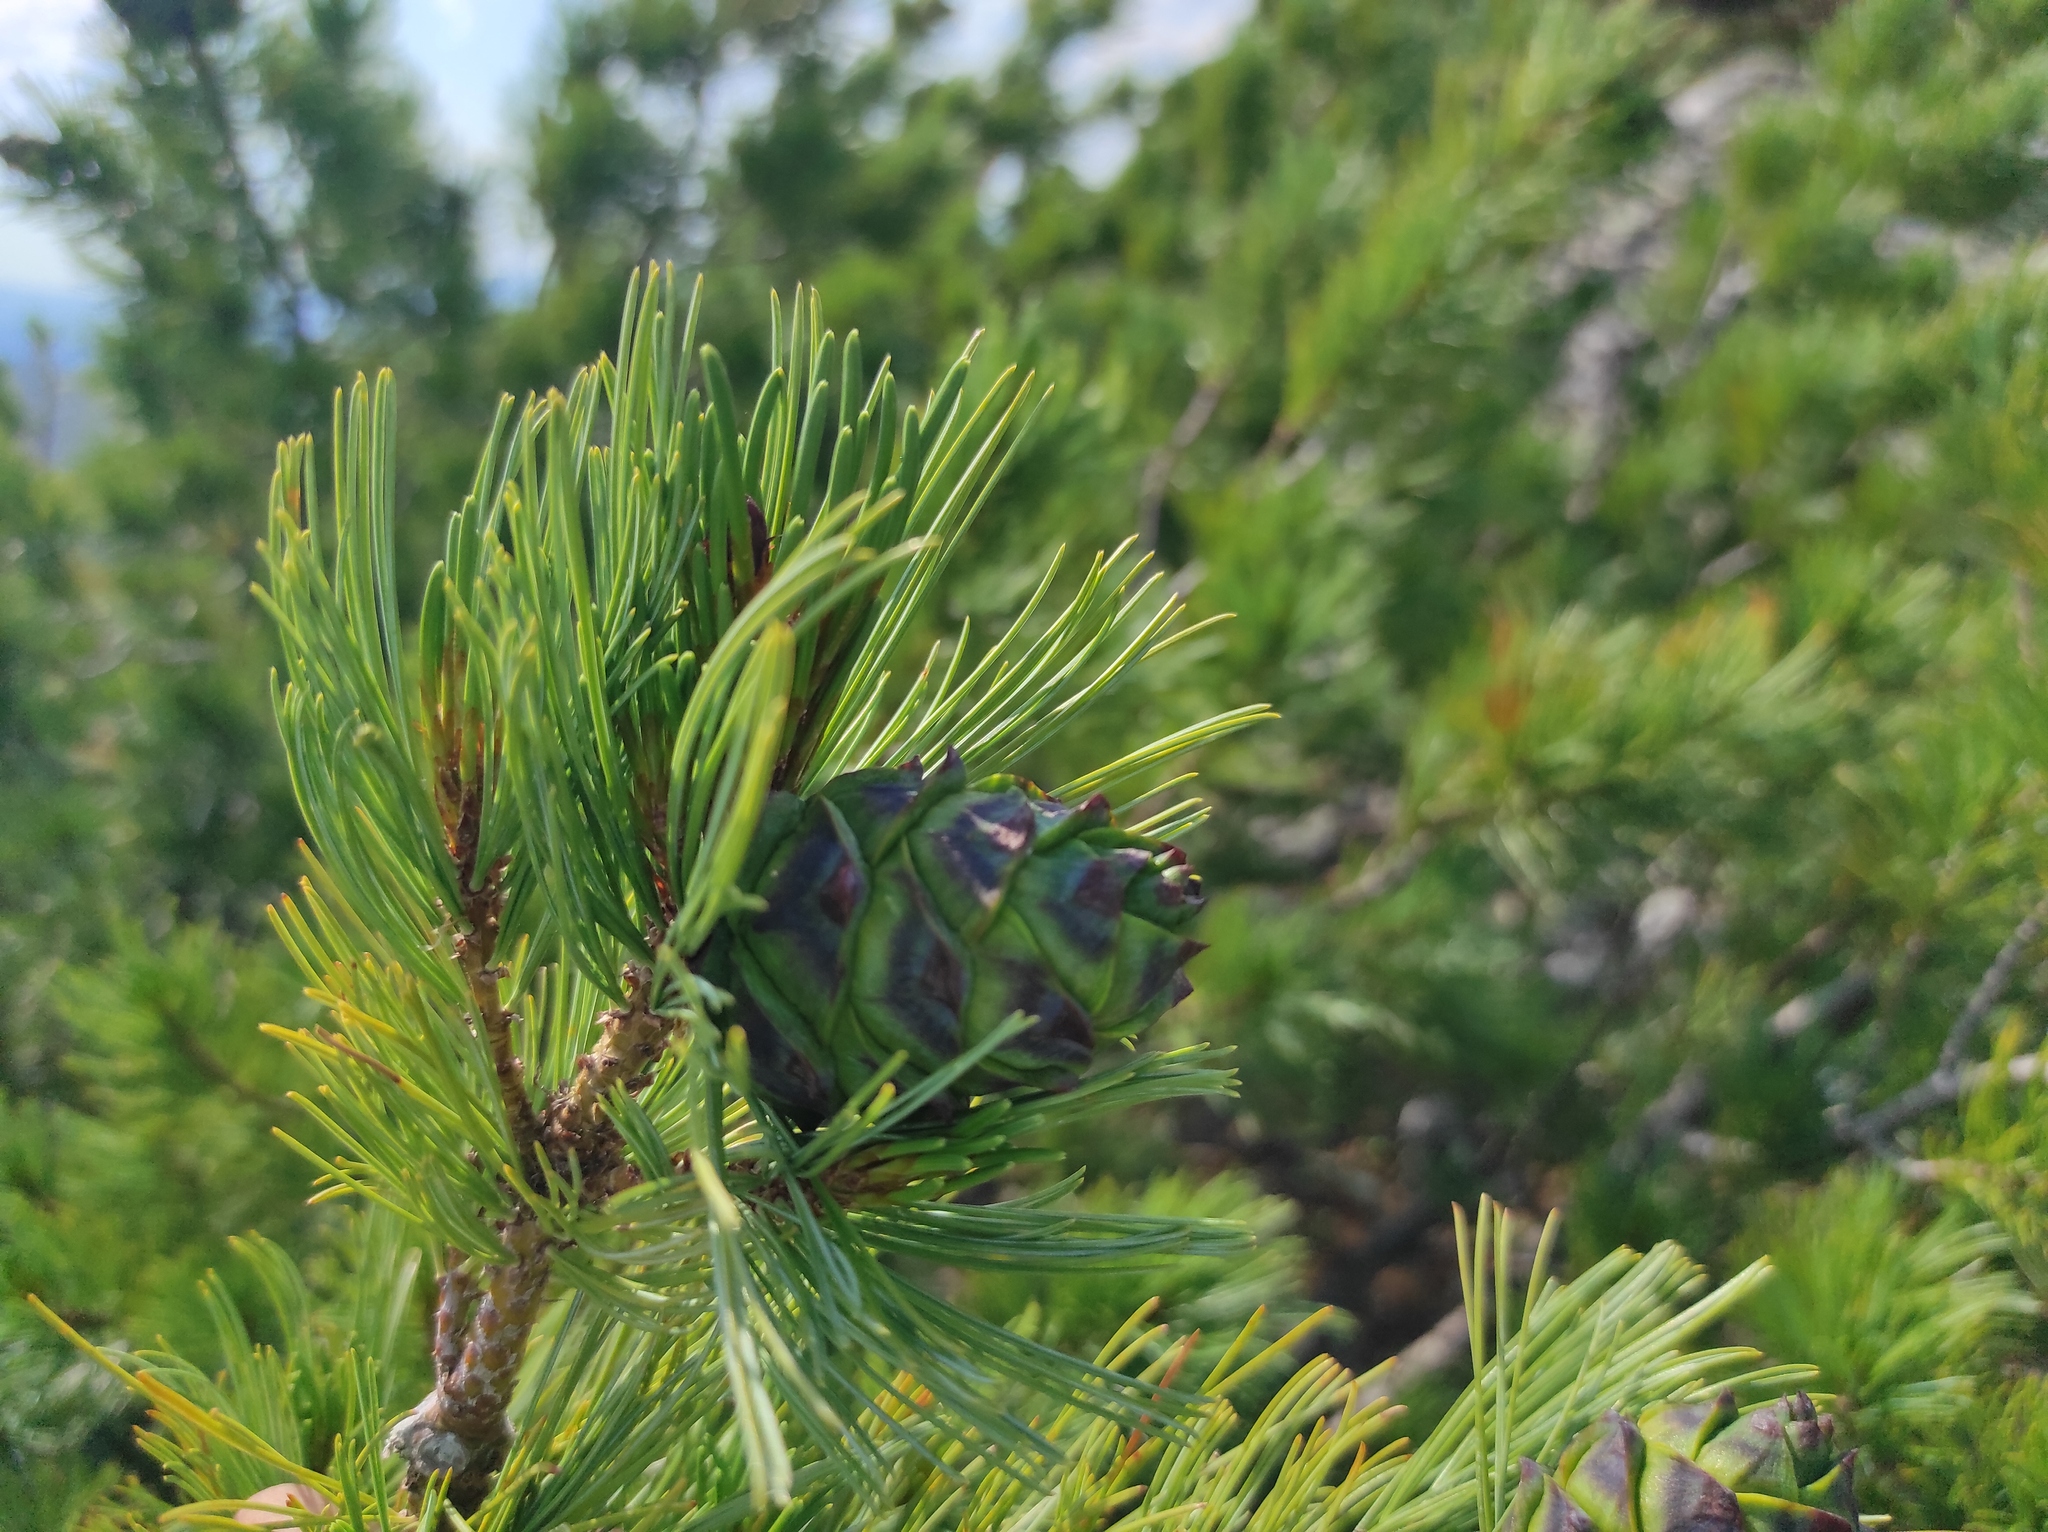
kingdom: Plantae
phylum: Tracheophyta
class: Pinopsida
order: Pinales
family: Pinaceae
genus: Pinus
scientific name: Pinus pumila
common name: Dwarf siberian pine
